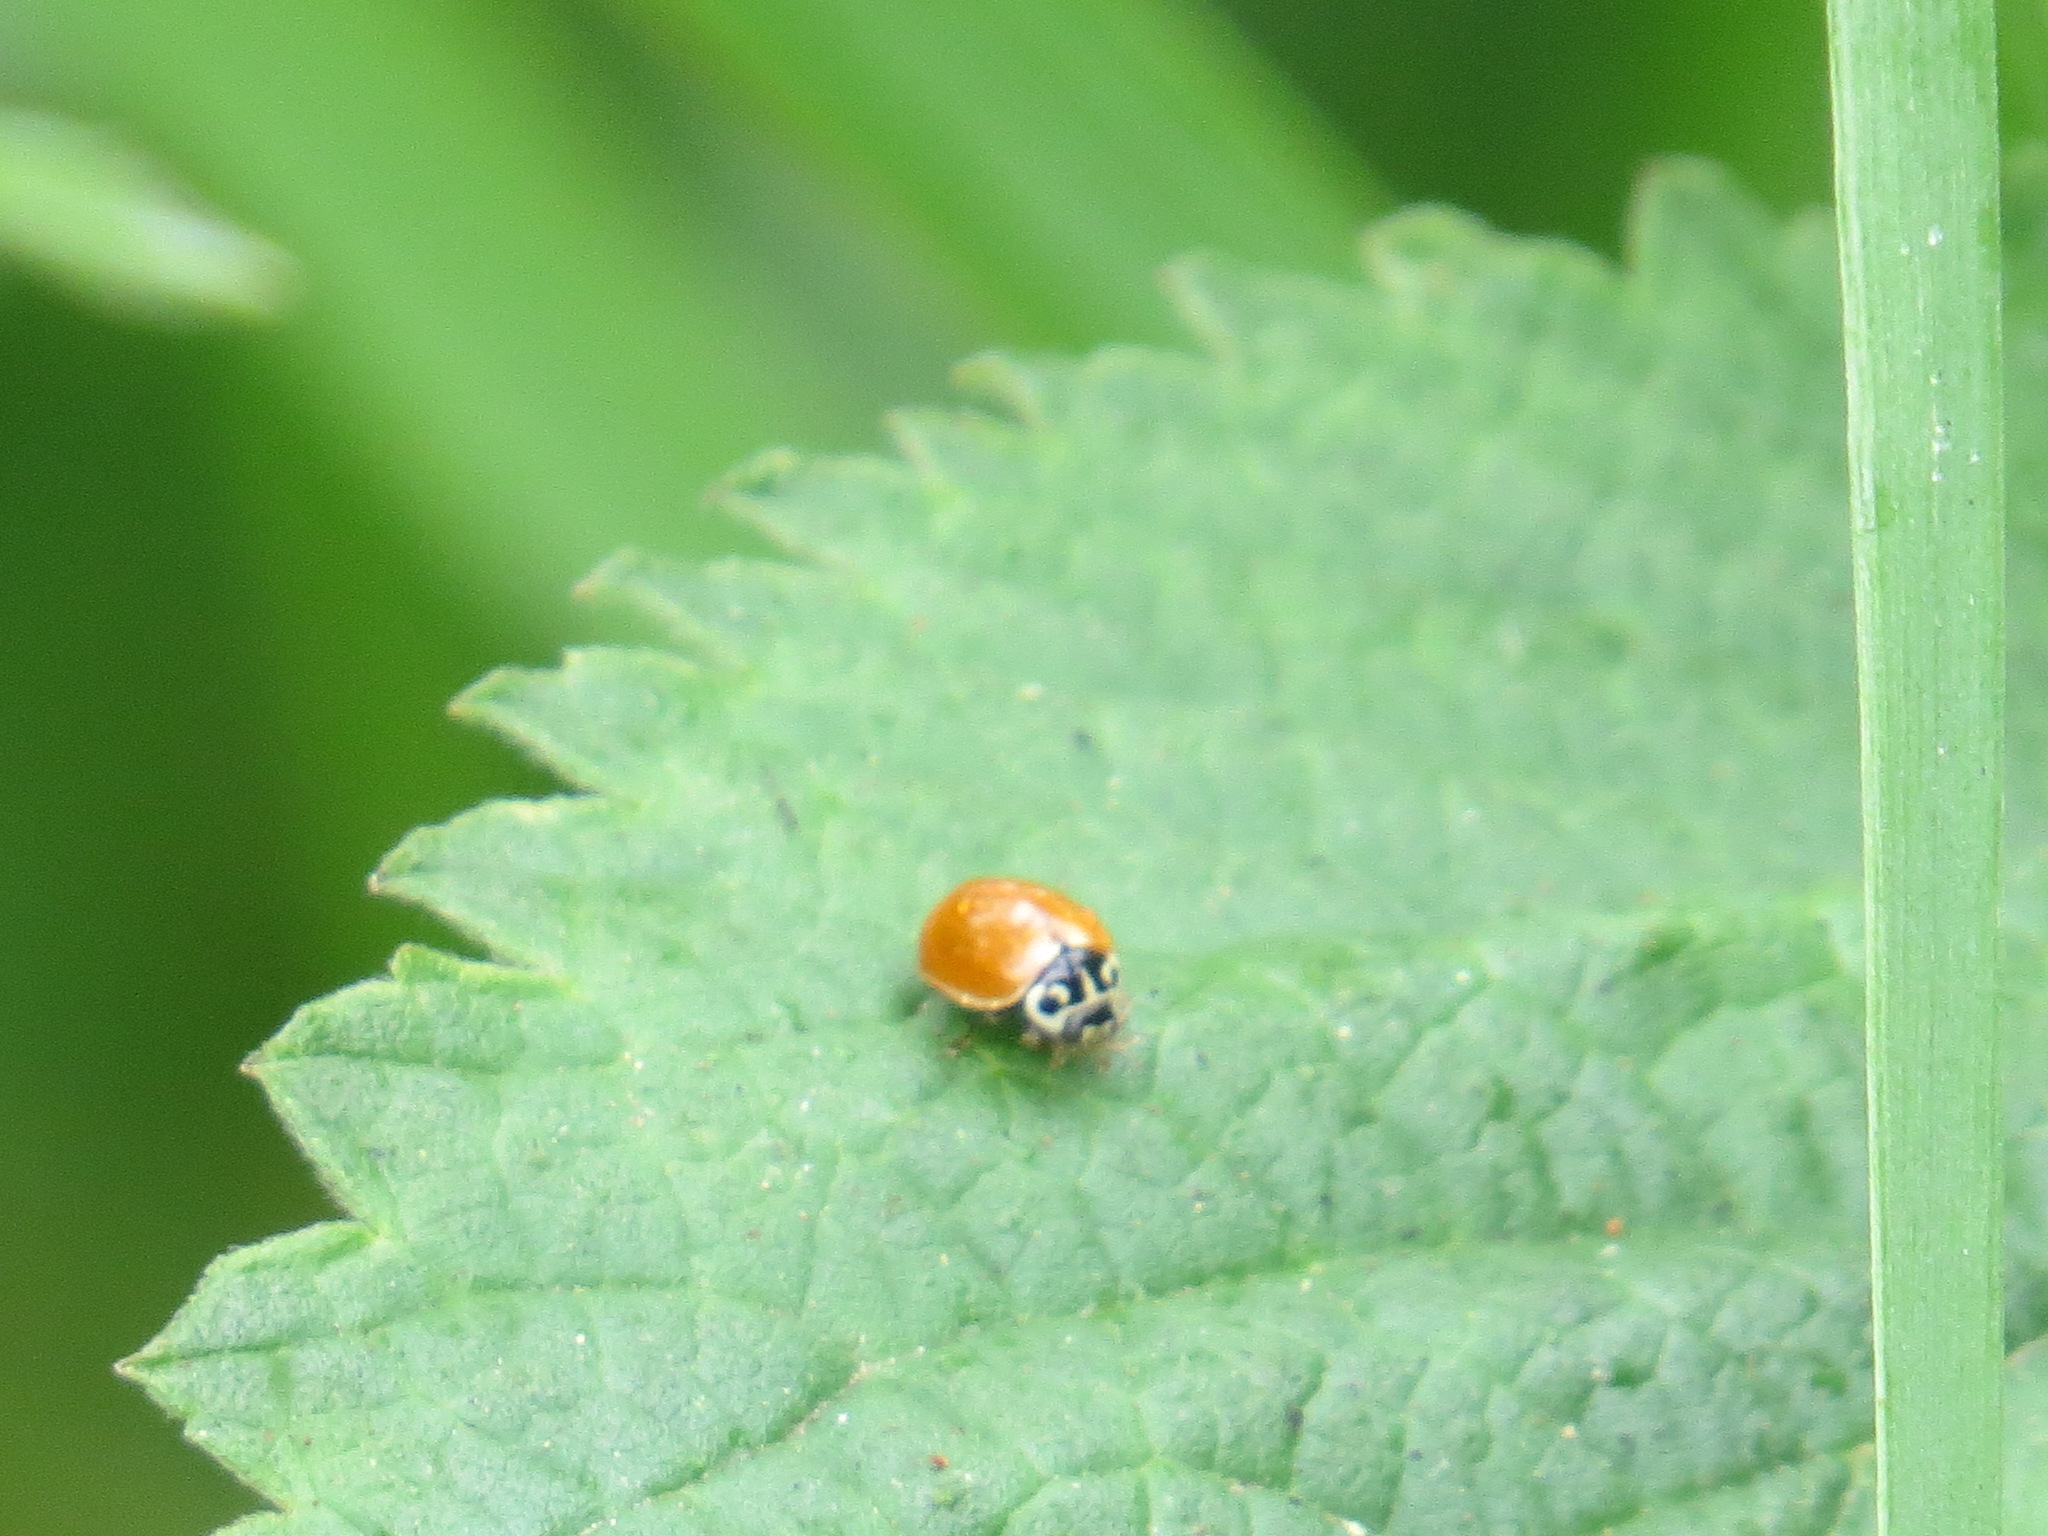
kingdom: Animalia
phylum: Arthropoda
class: Insecta
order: Coleoptera
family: Coccinellidae
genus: Cycloneda
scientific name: Cycloneda polita
